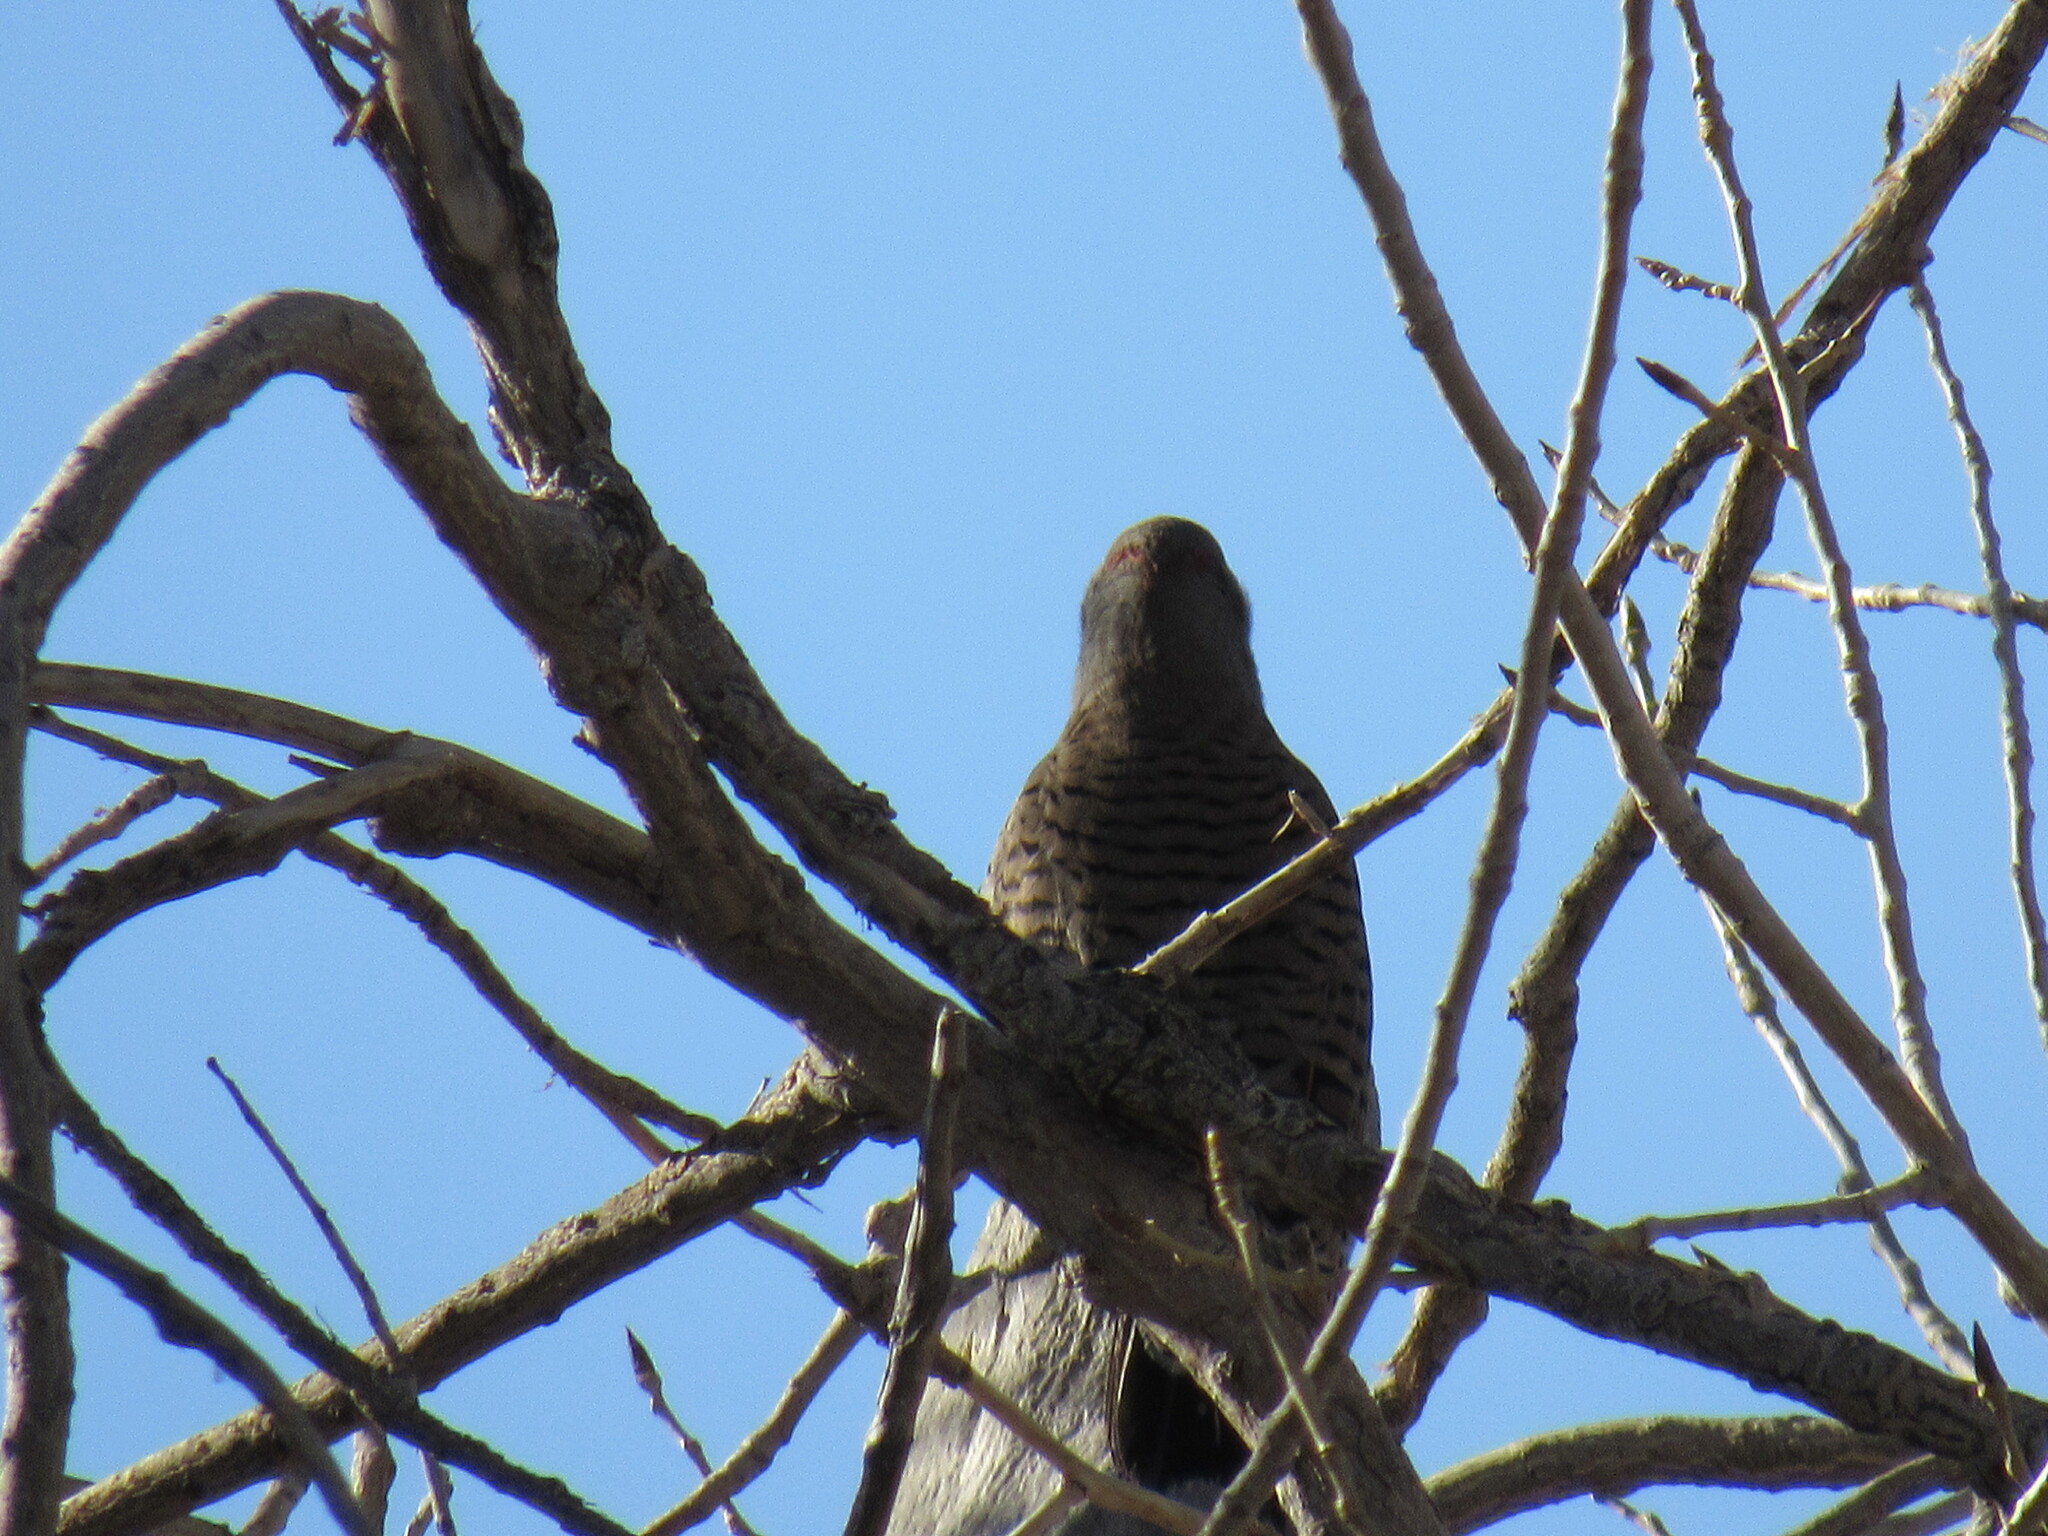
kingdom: Animalia
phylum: Chordata
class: Aves
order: Piciformes
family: Picidae
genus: Colaptes
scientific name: Colaptes auratus
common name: Northern flicker
